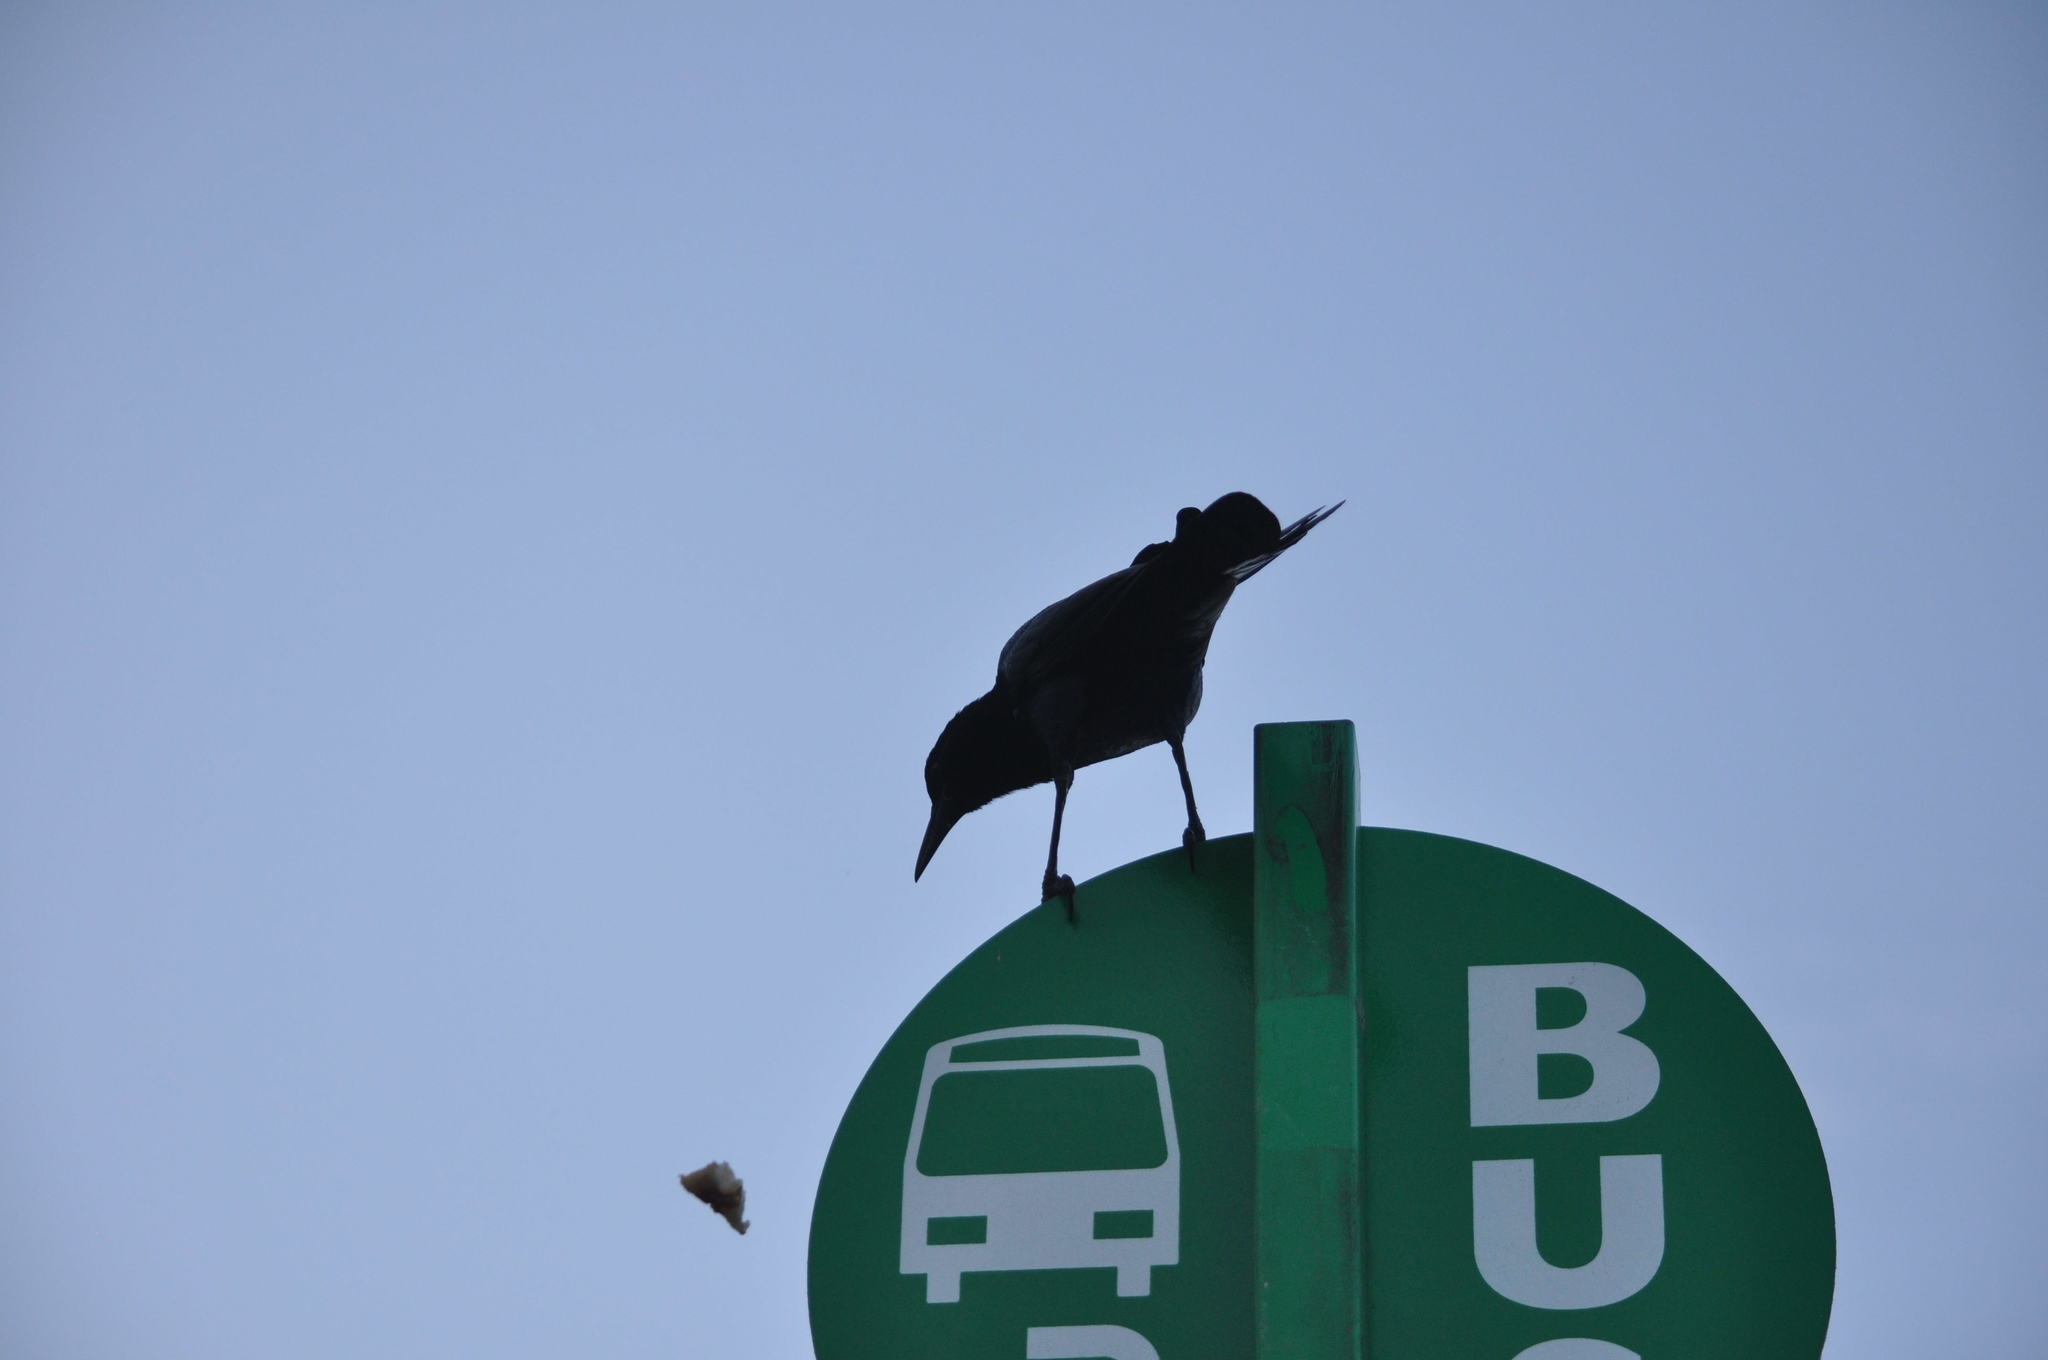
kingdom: Animalia
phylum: Chordata
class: Aves
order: Passeriformes
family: Icteridae
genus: Quiscalus
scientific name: Quiscalus major
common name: Boat-tailed grackle
